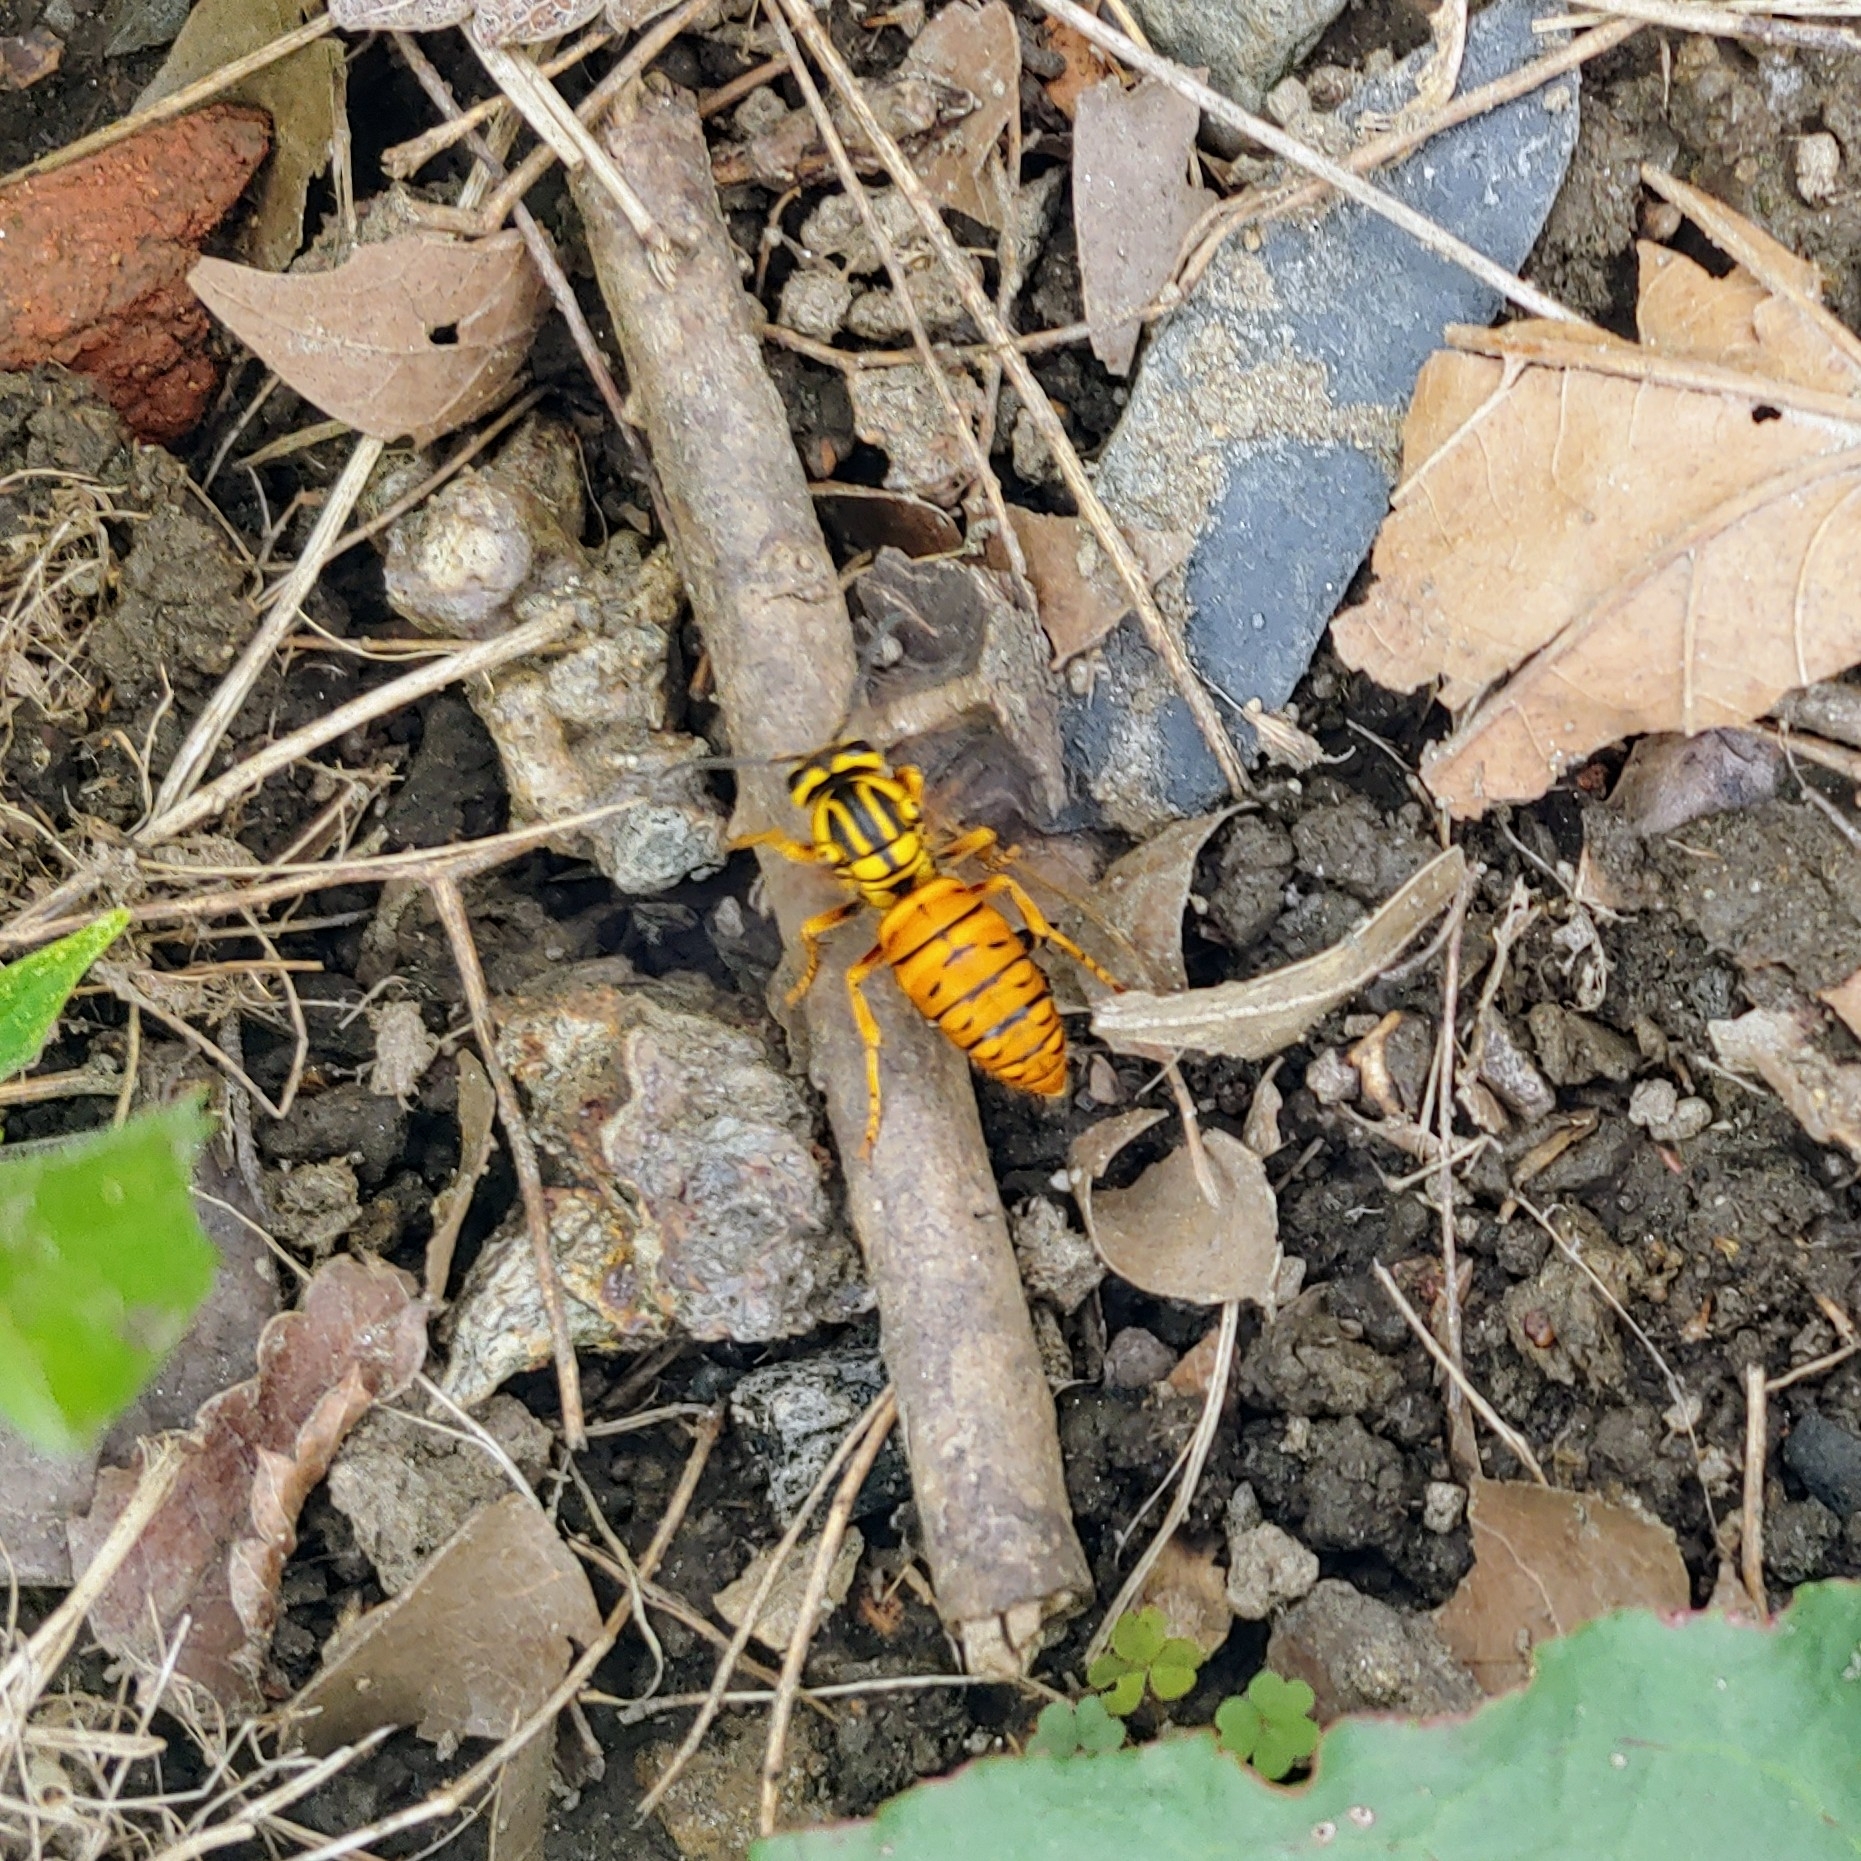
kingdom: Animalia
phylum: Arthropoda
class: Insecta
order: Hymenoptera
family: Vespidae
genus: Vespula
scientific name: Vespula squamosa
